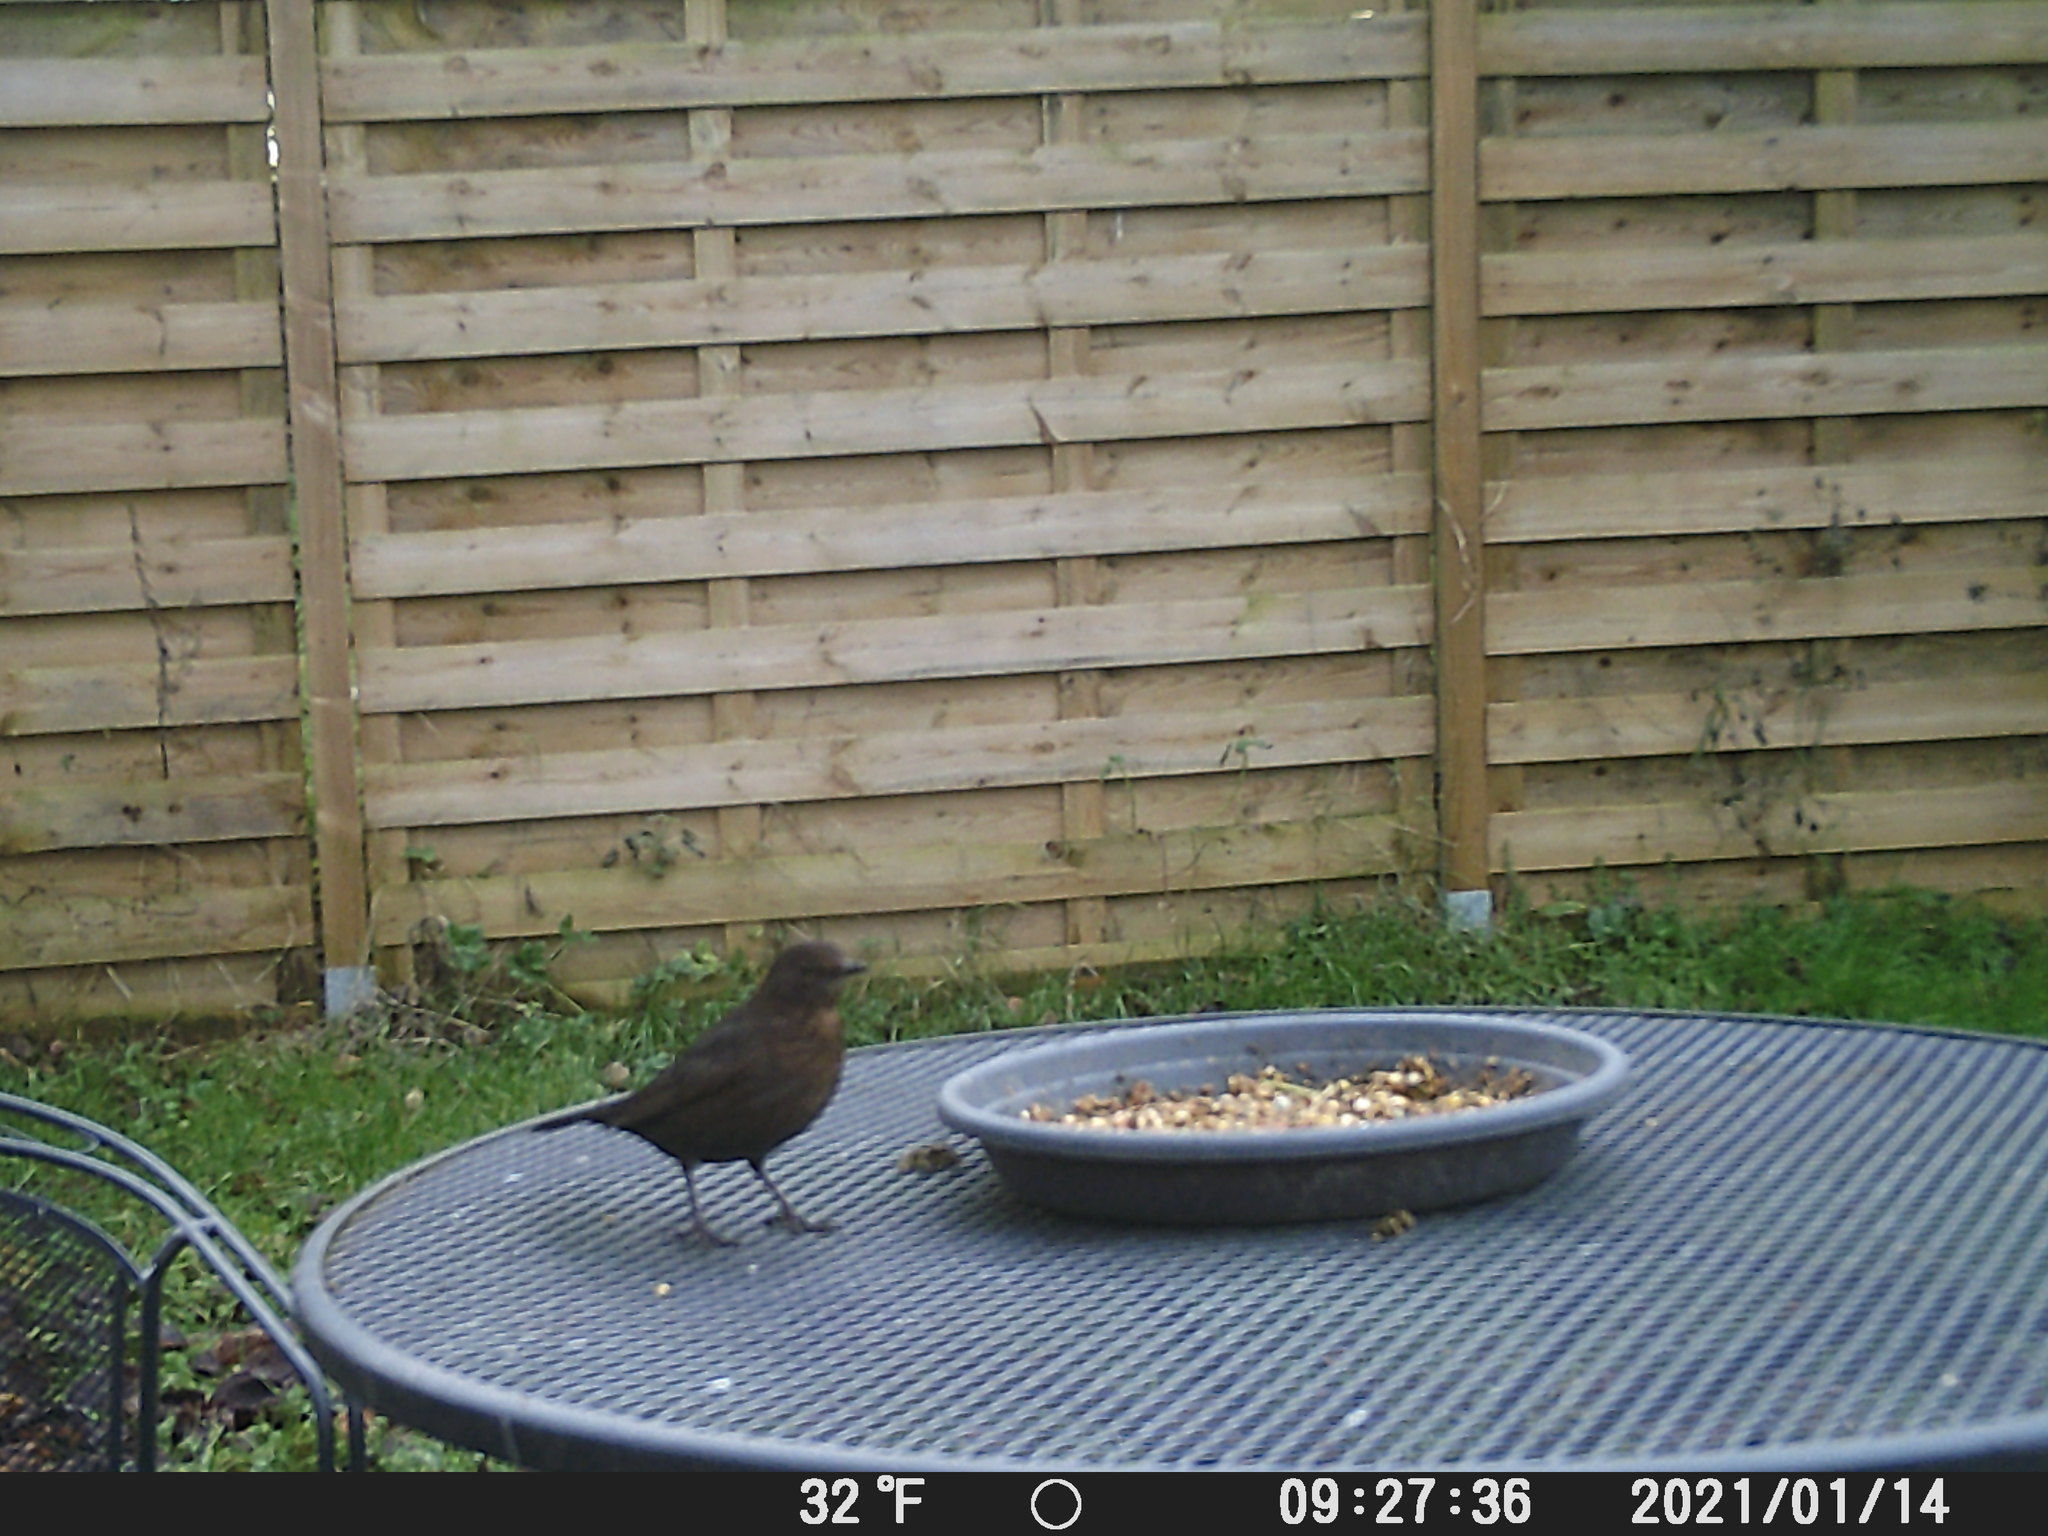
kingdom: Animalia
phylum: Chordata
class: Aves
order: Passeriformes
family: Turdidae
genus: Turdus
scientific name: Turdus merula
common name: Common blackbird
